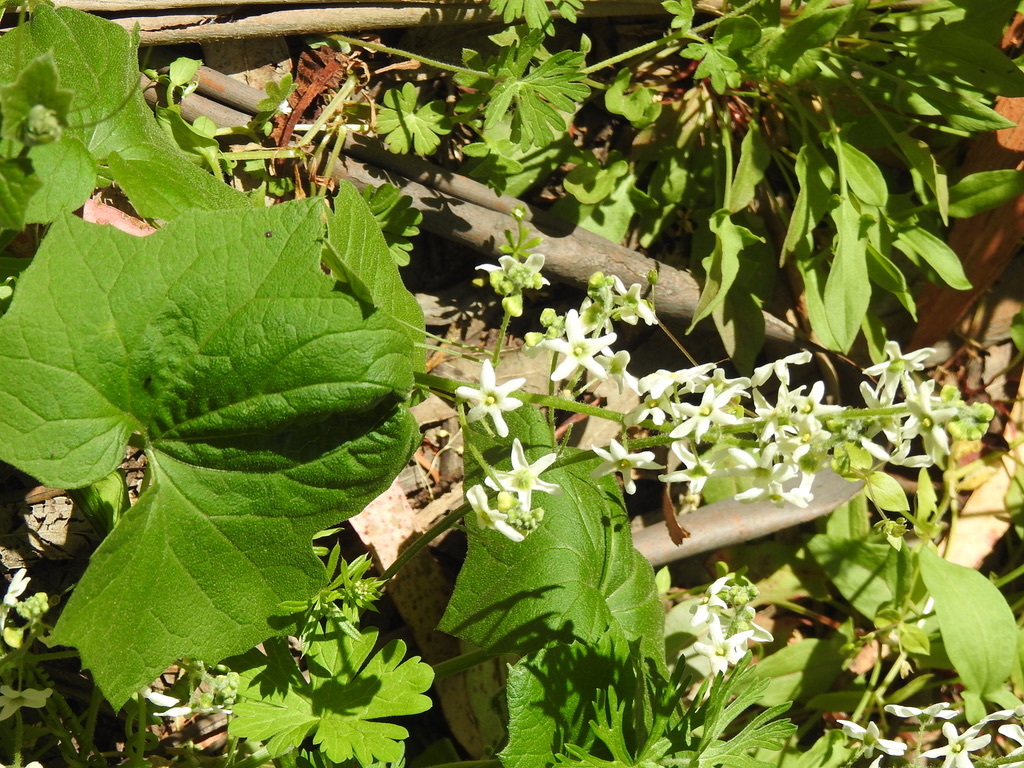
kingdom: Plantae
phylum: Tracheophyta
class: Magnoliopsida
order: Cucurbitales
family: Cucurbitaceae
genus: Marah
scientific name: Marah fabacea
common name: California manroot
